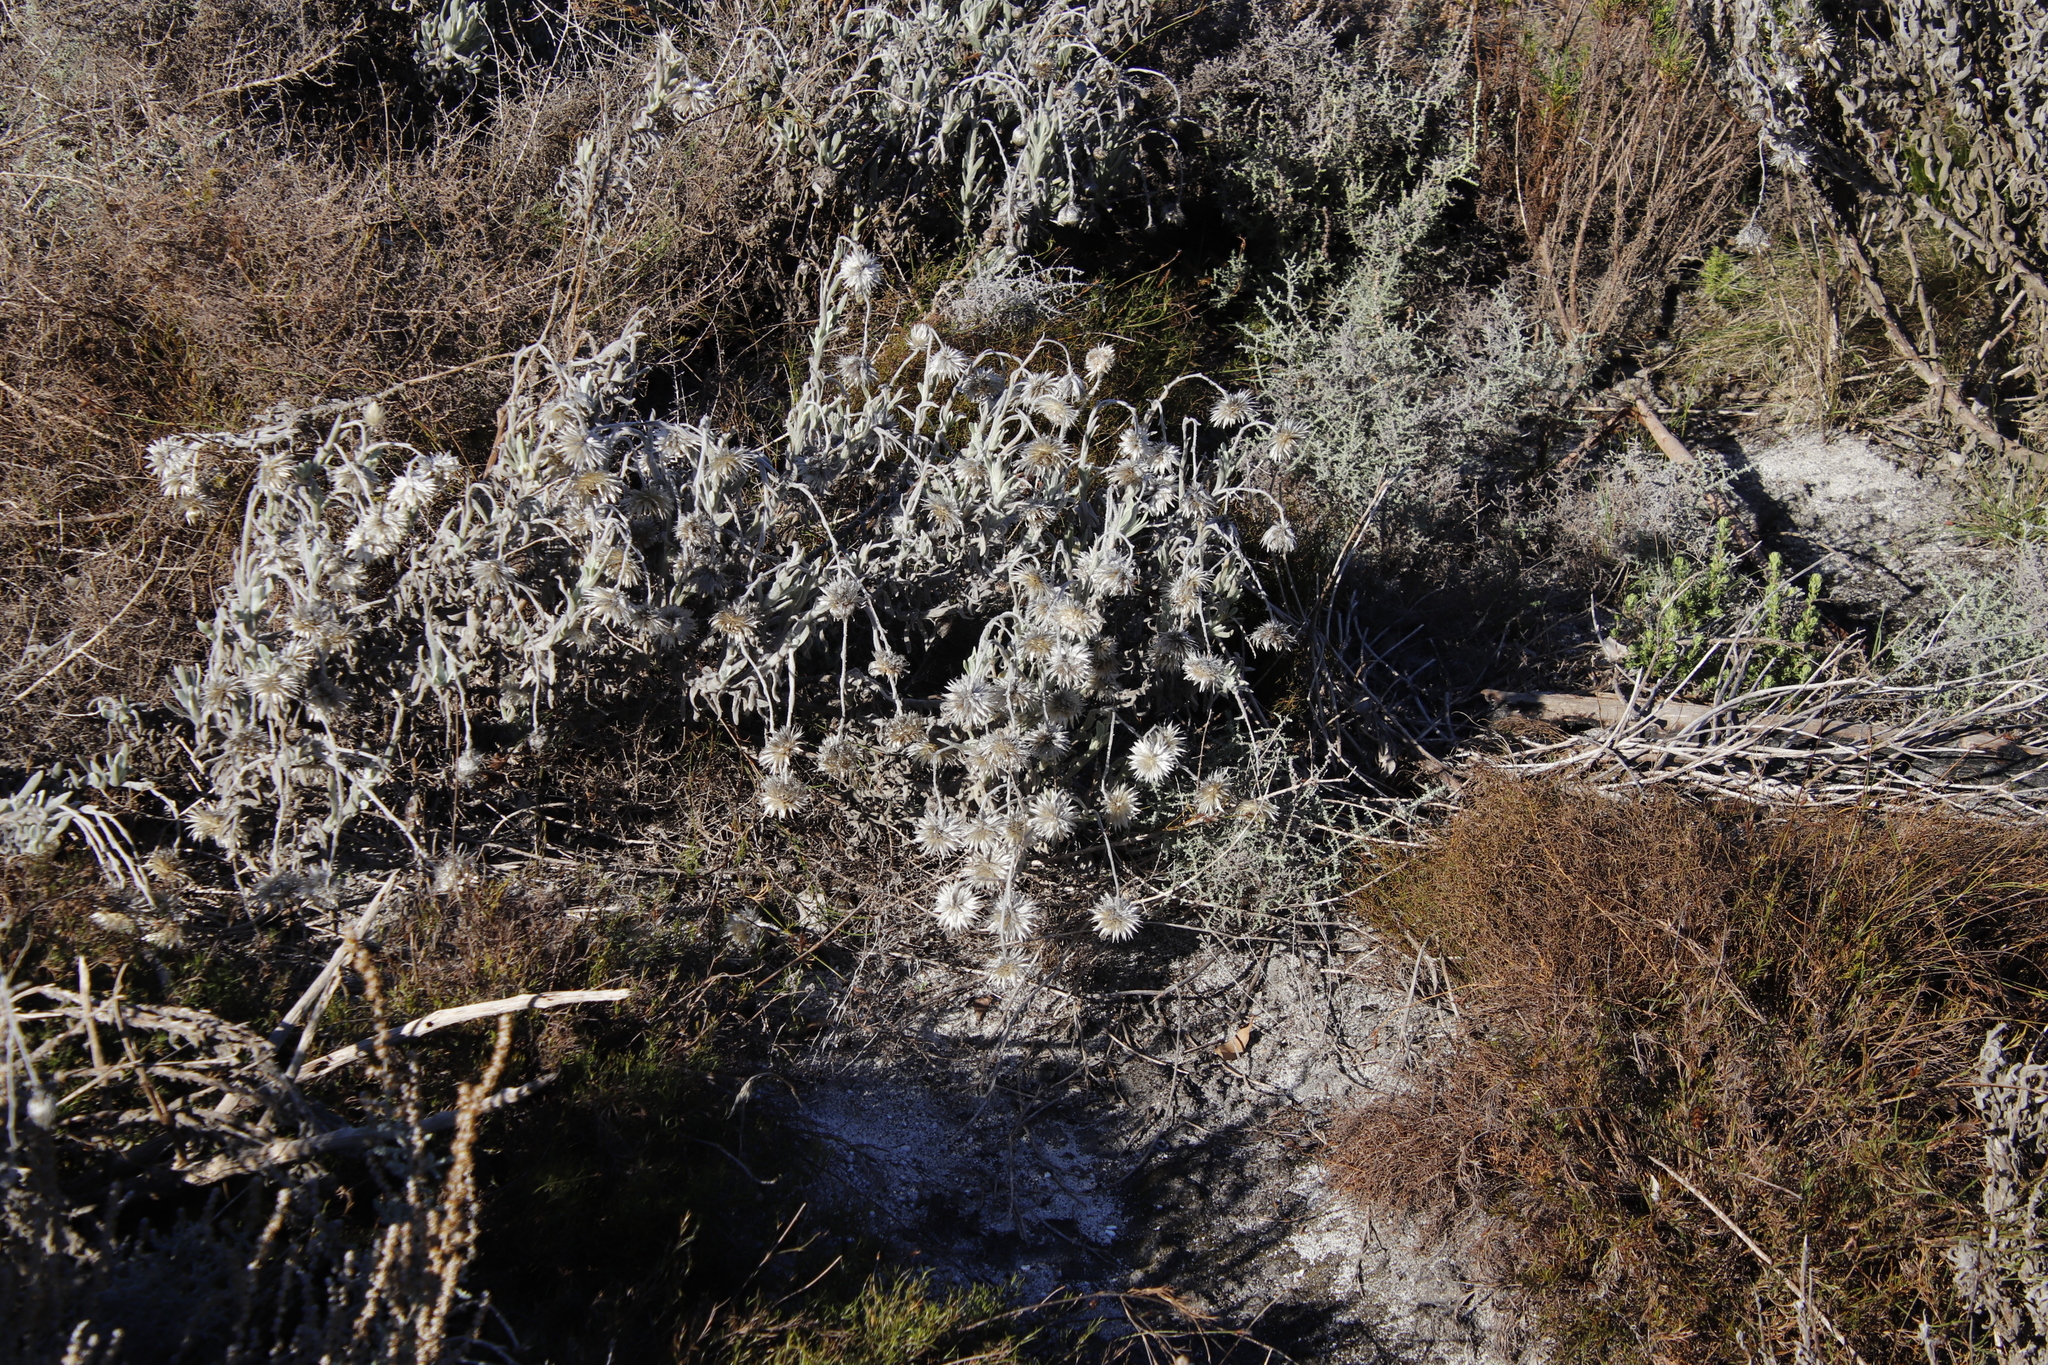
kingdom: Plantae
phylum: Tracheophyta
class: Magnoliopsida
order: Asterales
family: Asteraceae
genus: Syncarpha
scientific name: Syncarpha vestita
